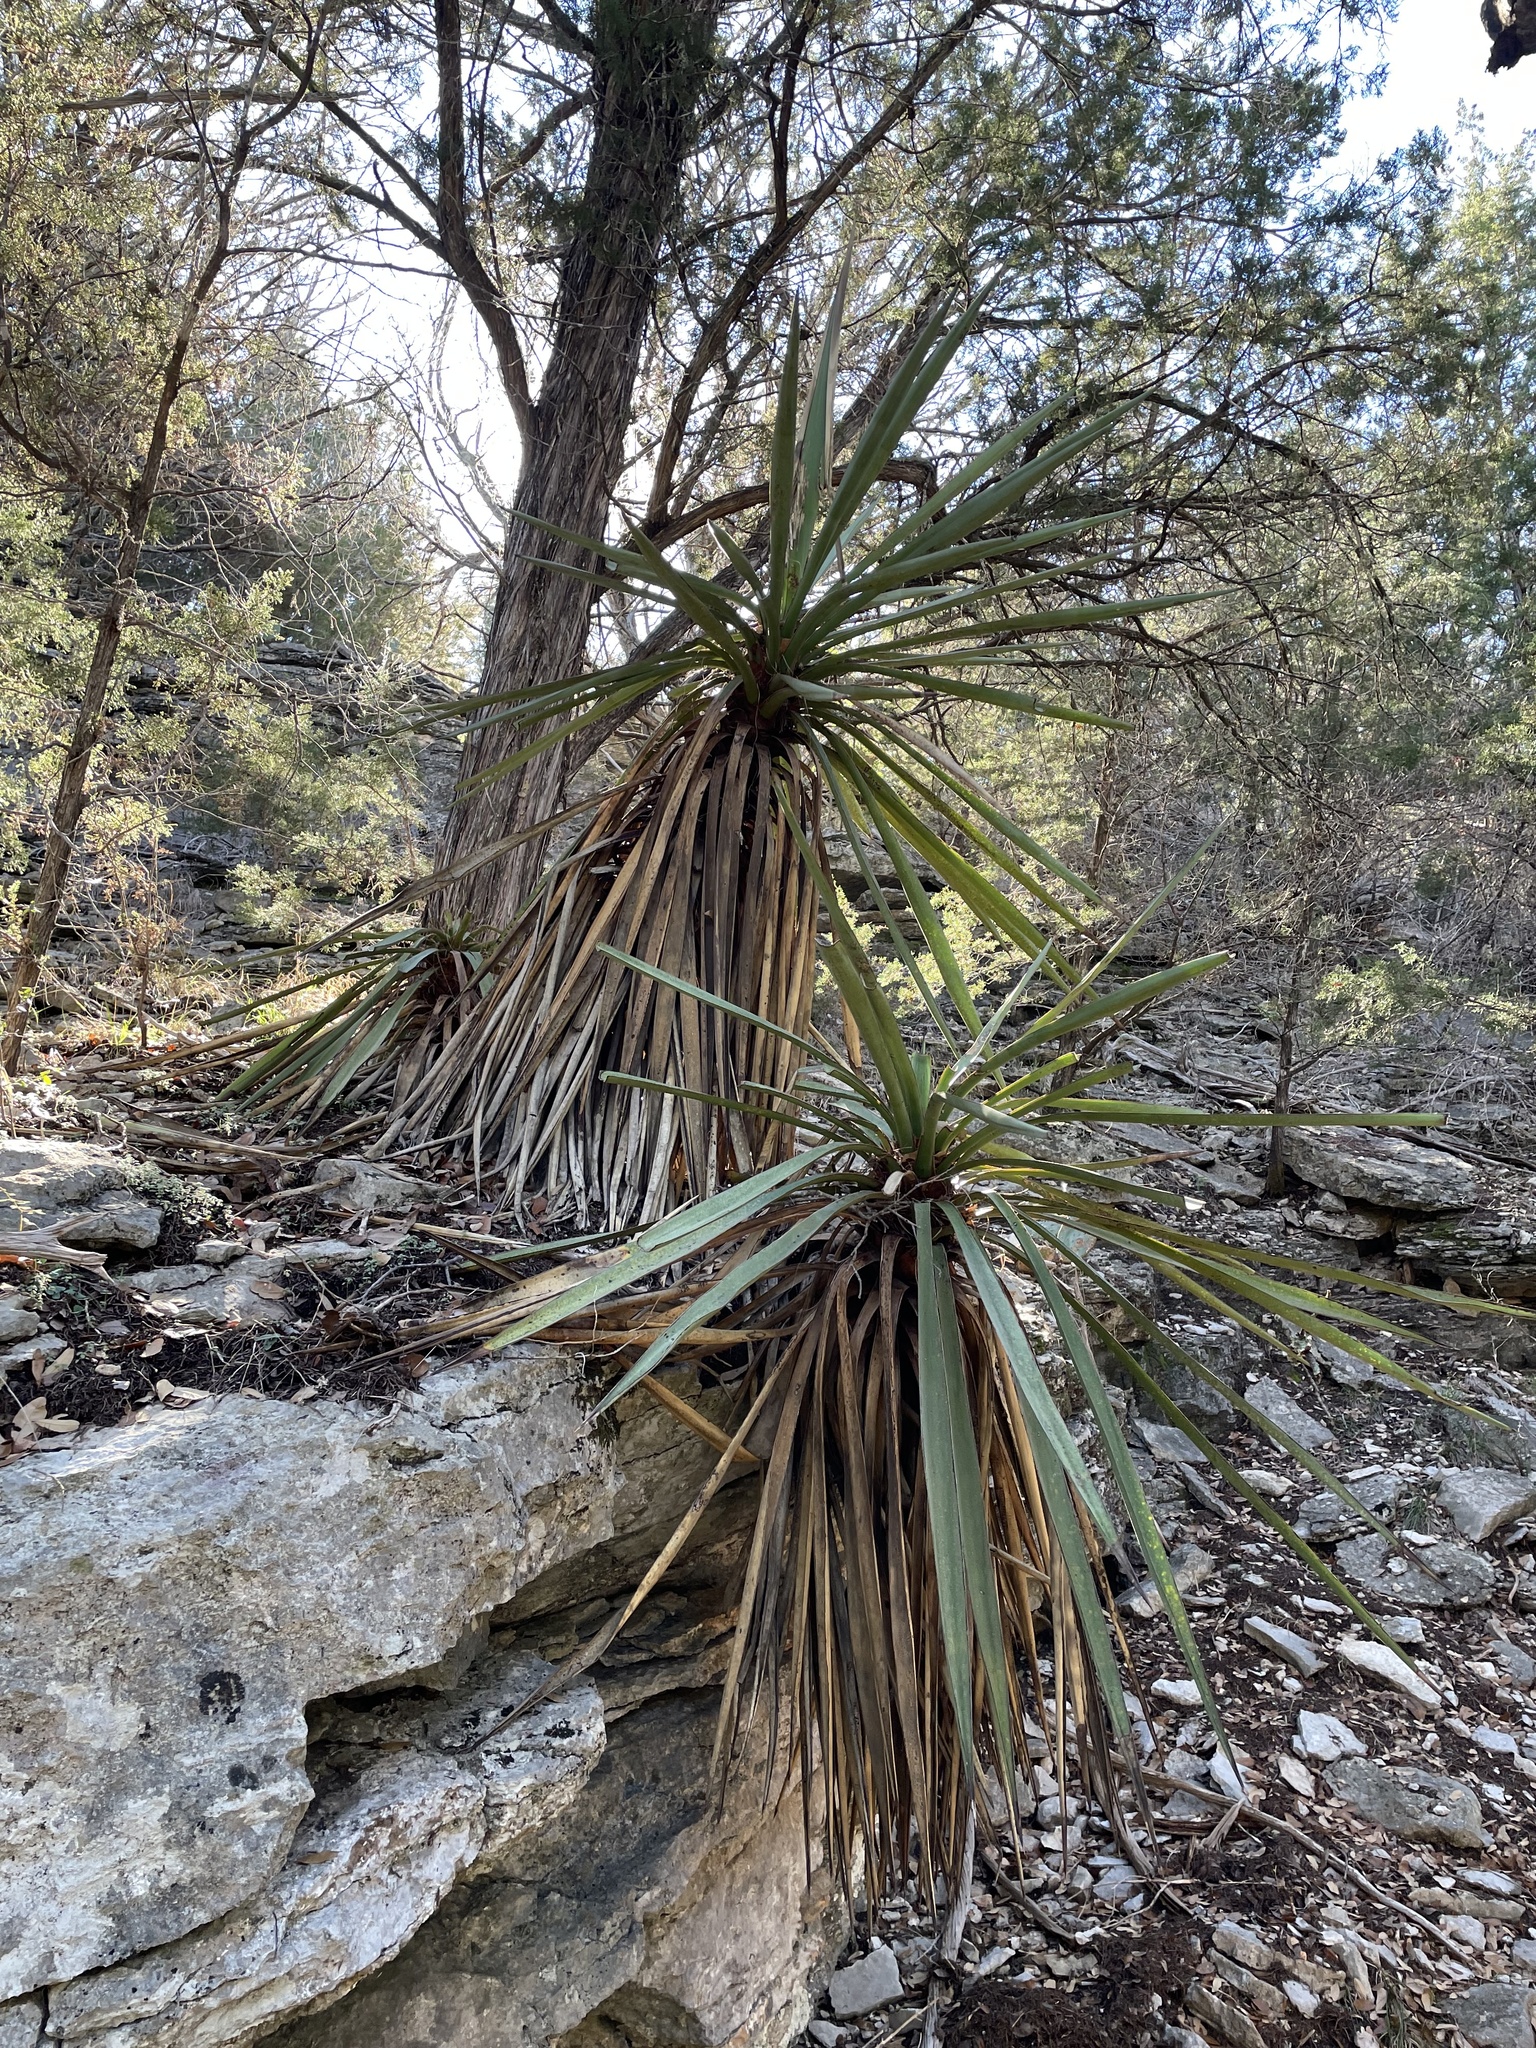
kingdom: Plantae
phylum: Tracheophyta
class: Liliopsida
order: Asparagales
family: Asparagaceae
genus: Yucca
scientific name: Yucca treculiana
